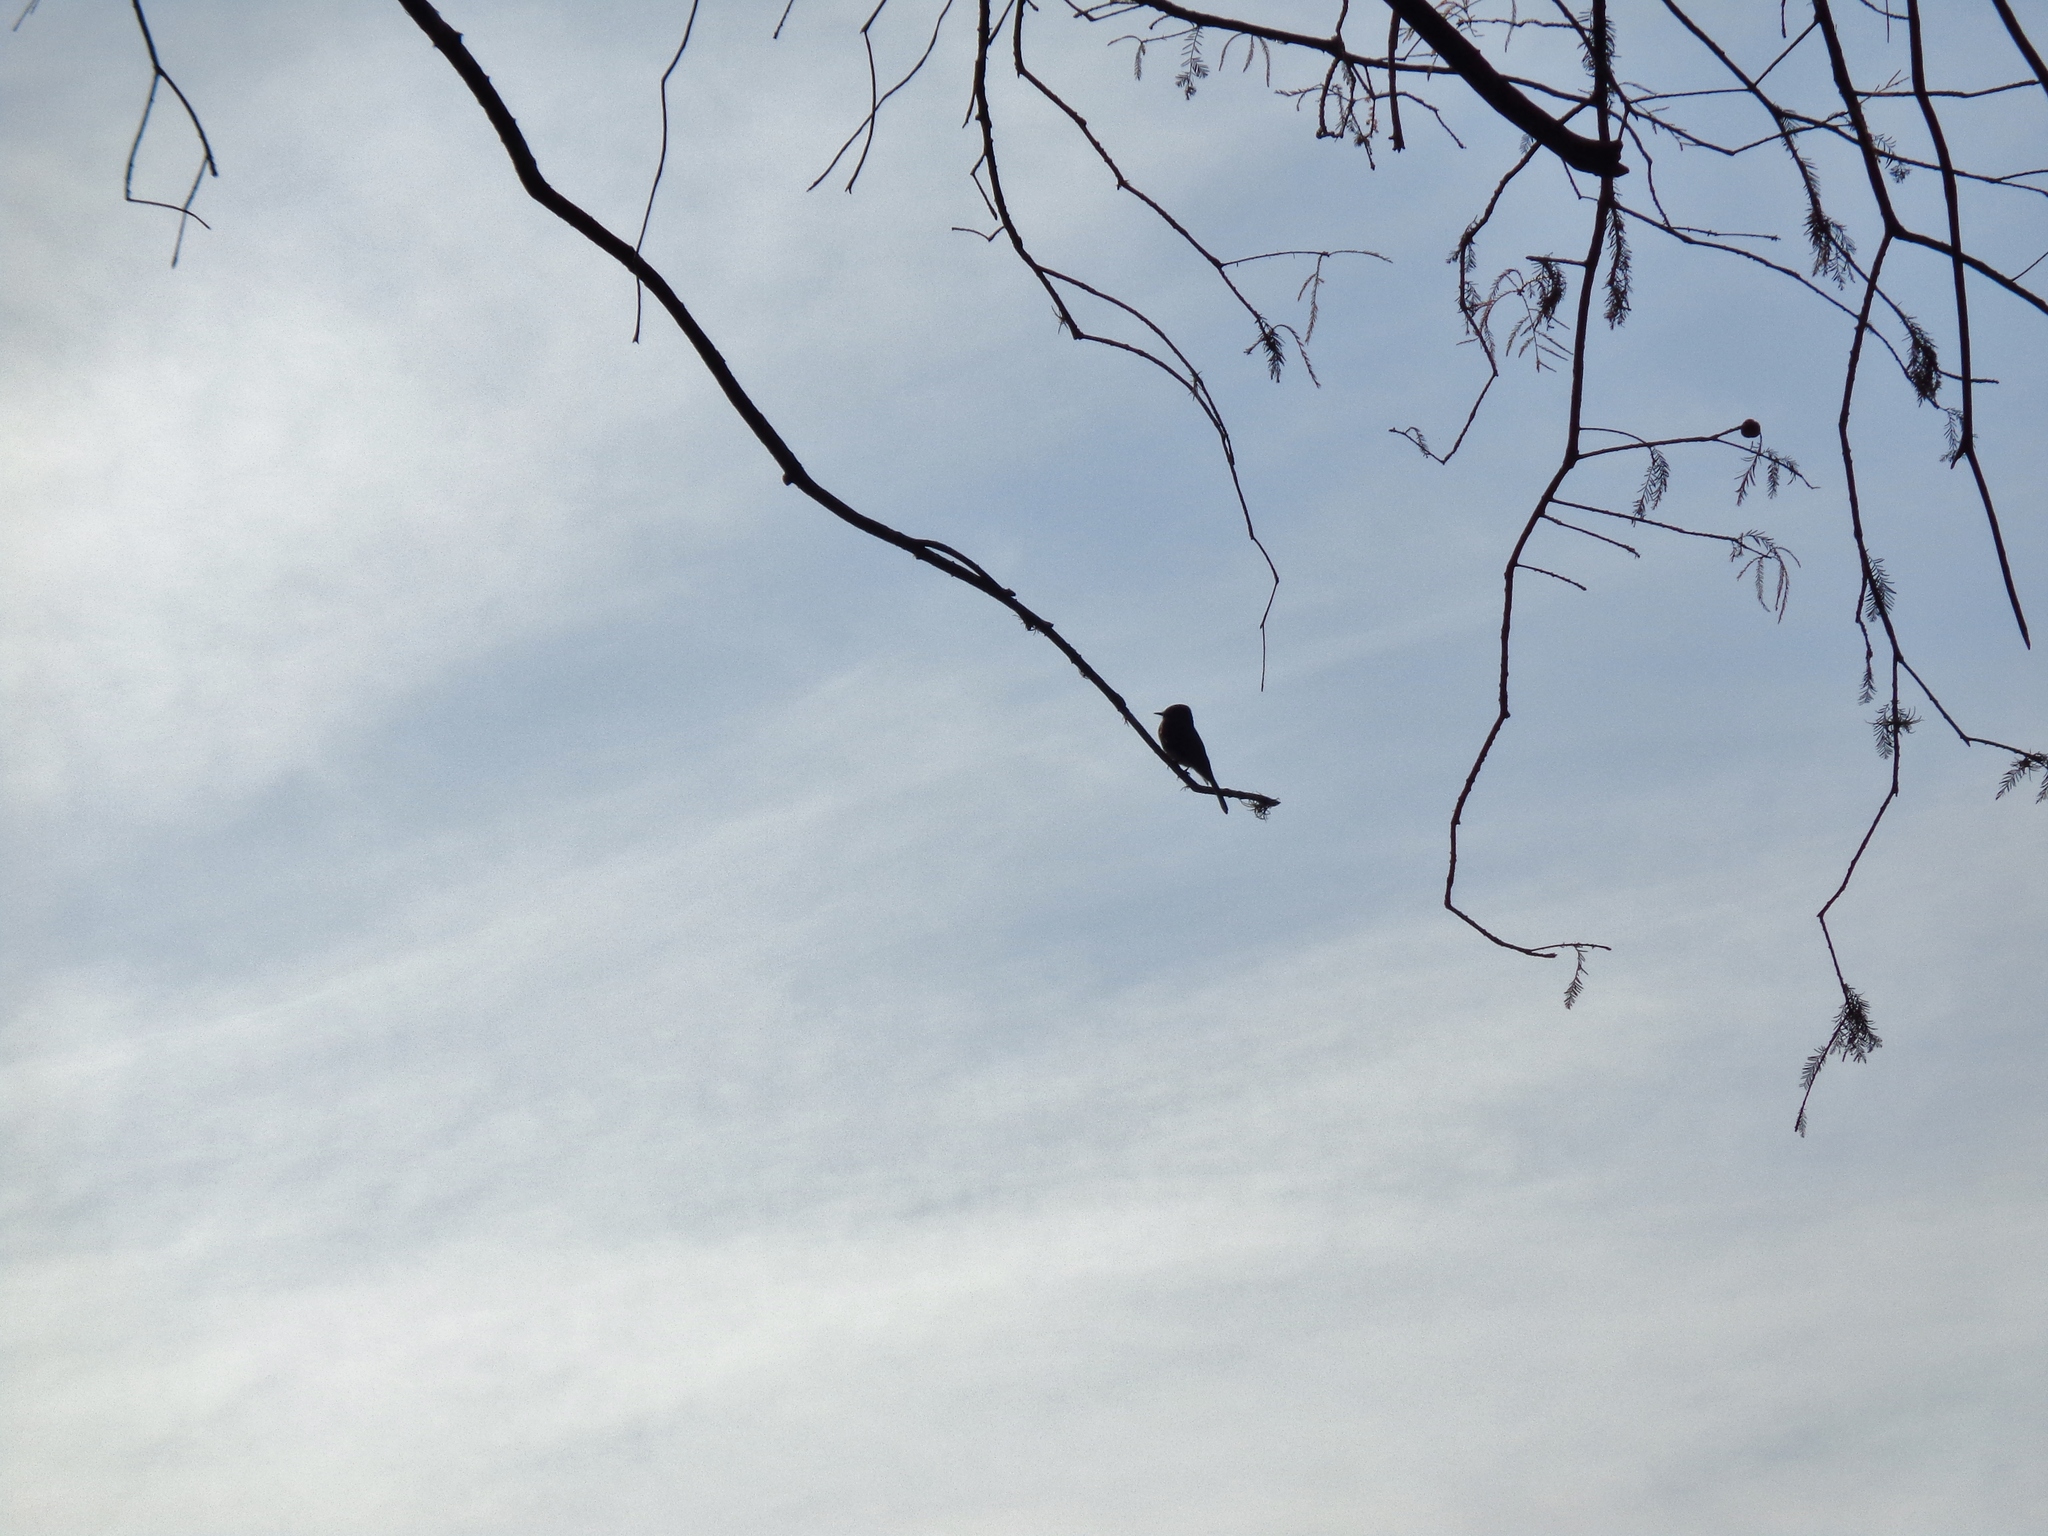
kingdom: Animalia
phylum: Chordata
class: Aves
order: Passeriformes
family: Tyrannidae
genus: Sayornis
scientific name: Sayornis nigricans
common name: Black phoebe
